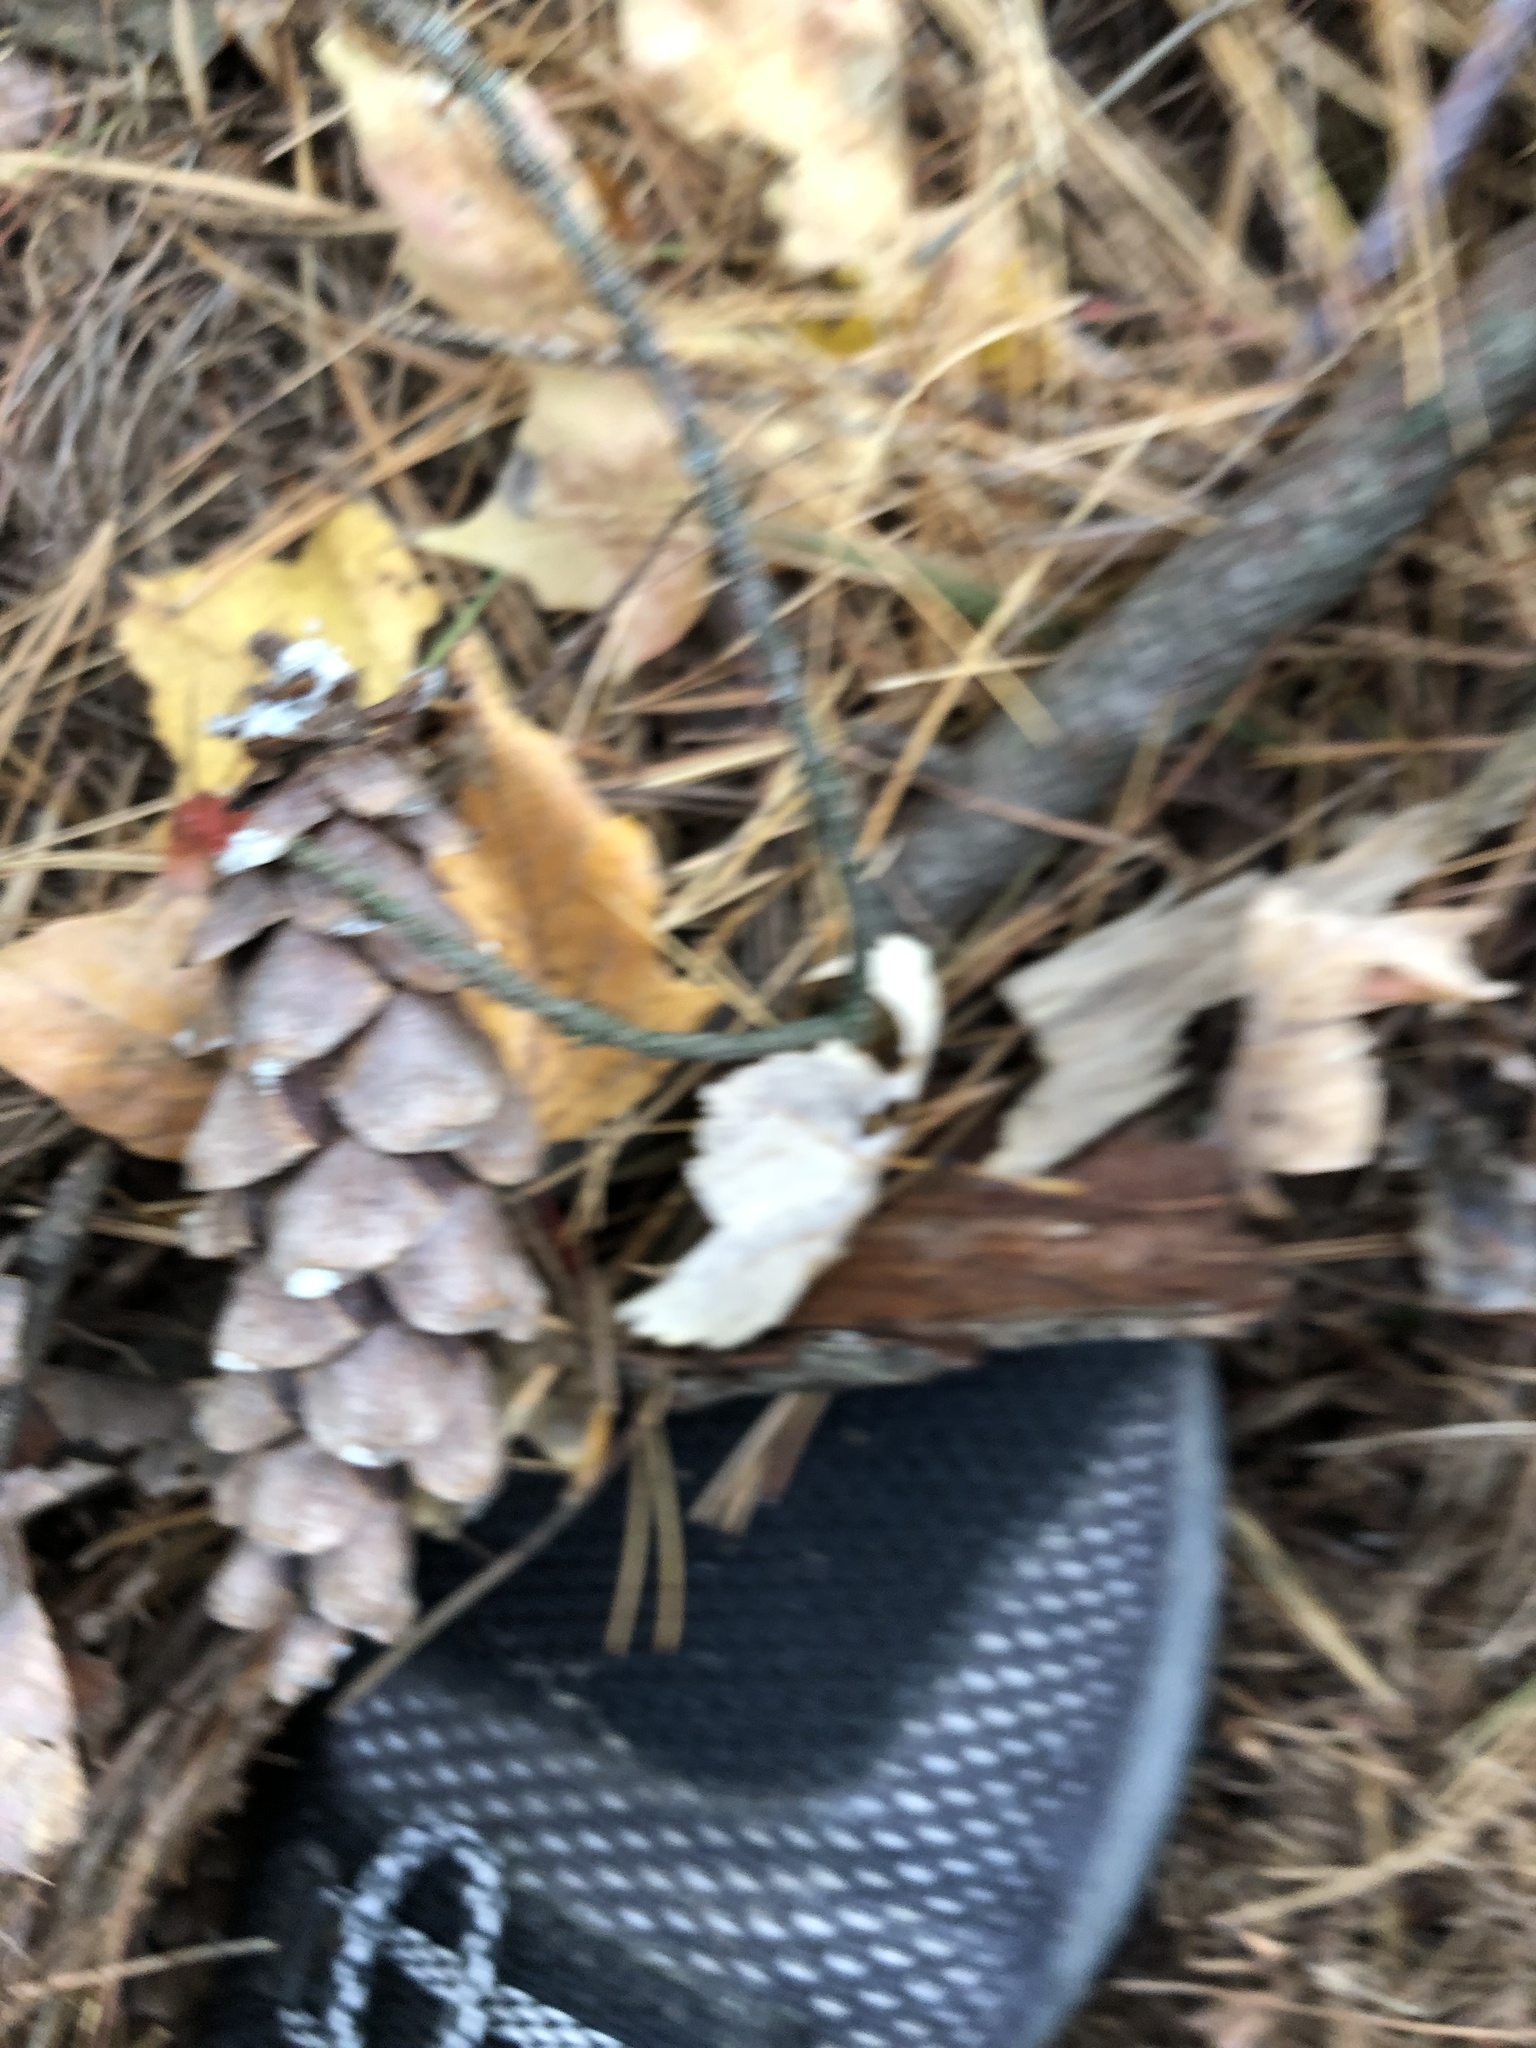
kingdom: Plantae
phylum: Tracheophyta
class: Pinopsida
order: Pinales
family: Pinaceae
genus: Pinus
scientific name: Pinus strobus
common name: Weymouth pine
